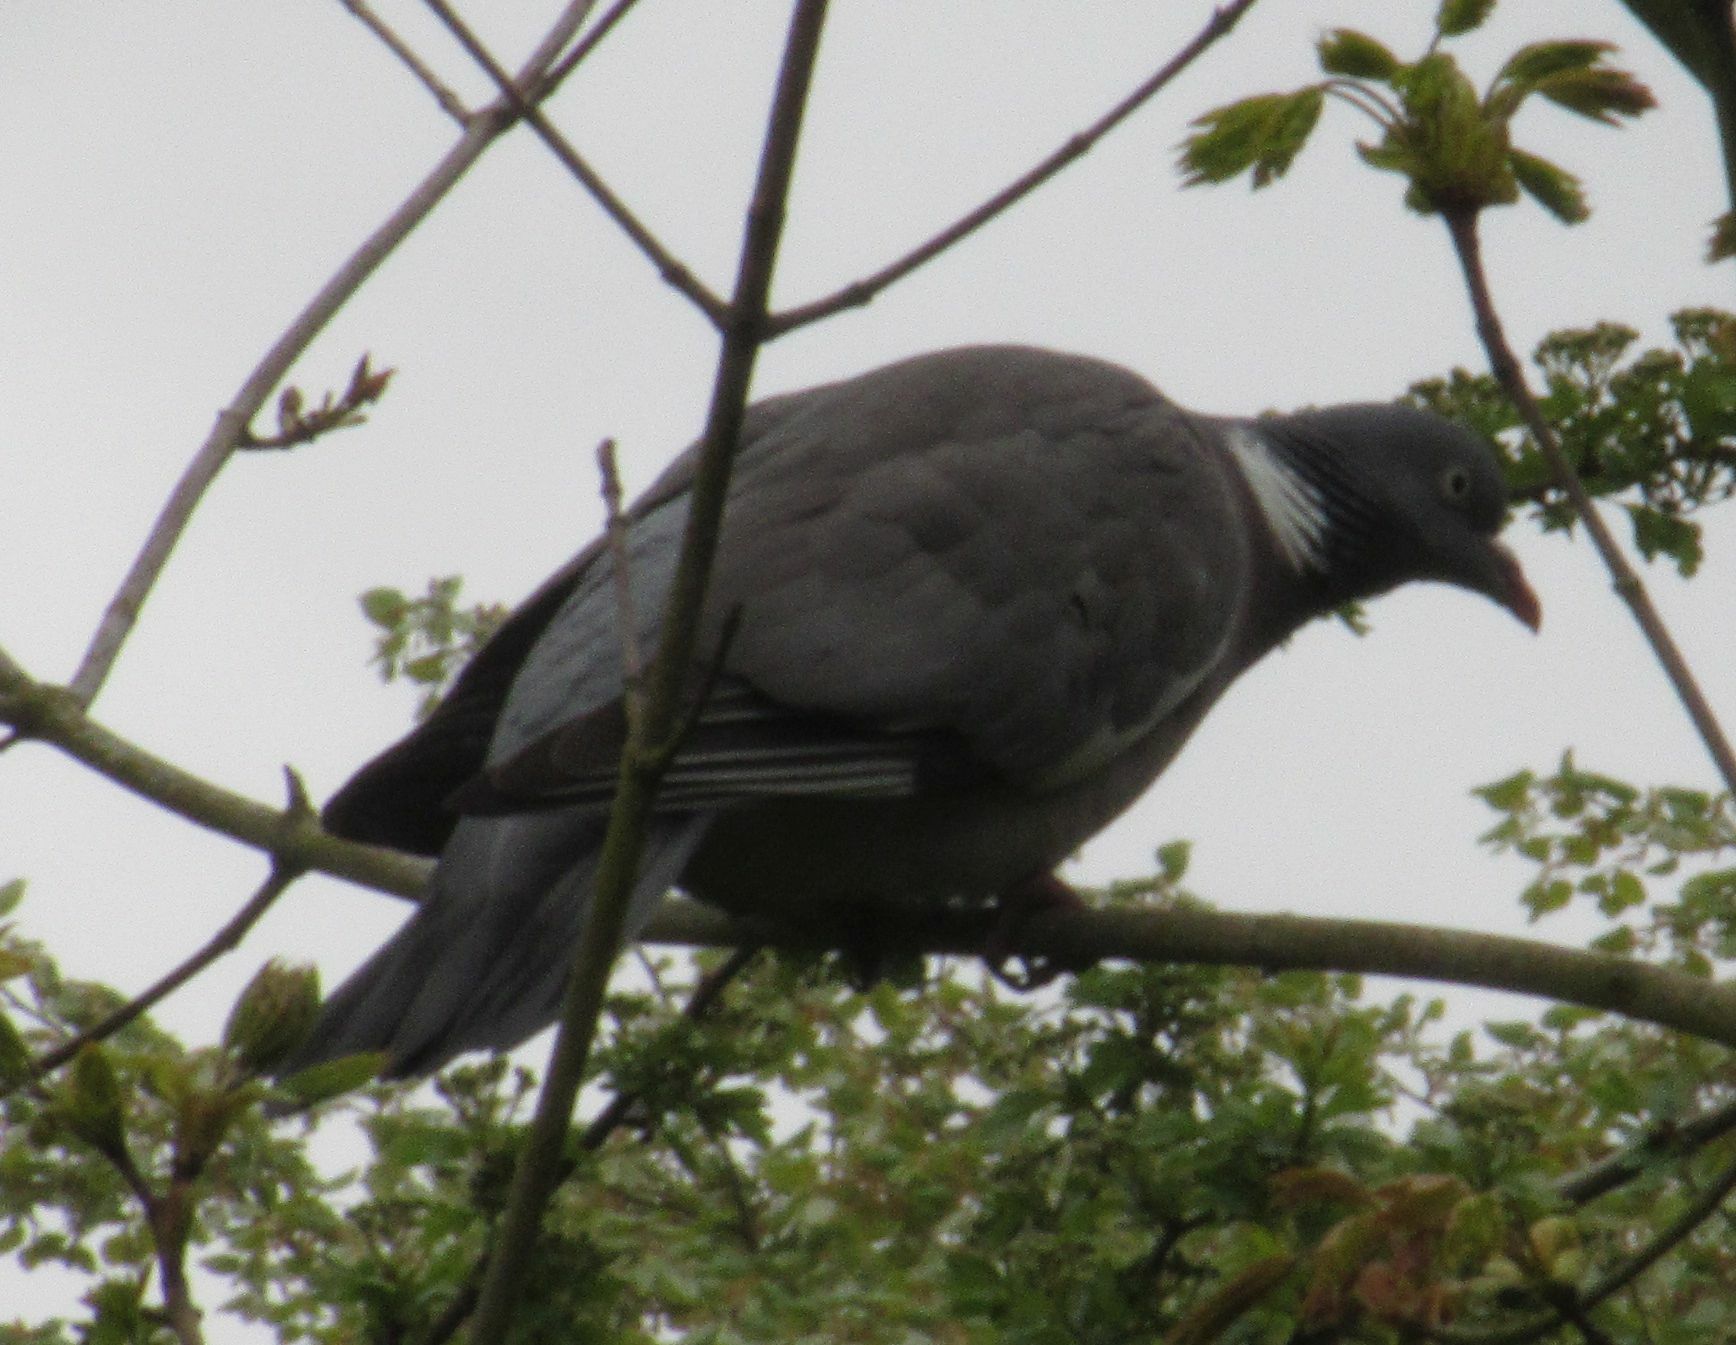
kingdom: Animalia
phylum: Chordata
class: Aves
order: Columbiformes
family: Columbidae
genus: Columba
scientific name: Columba palumbus
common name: Common wood pigeon
